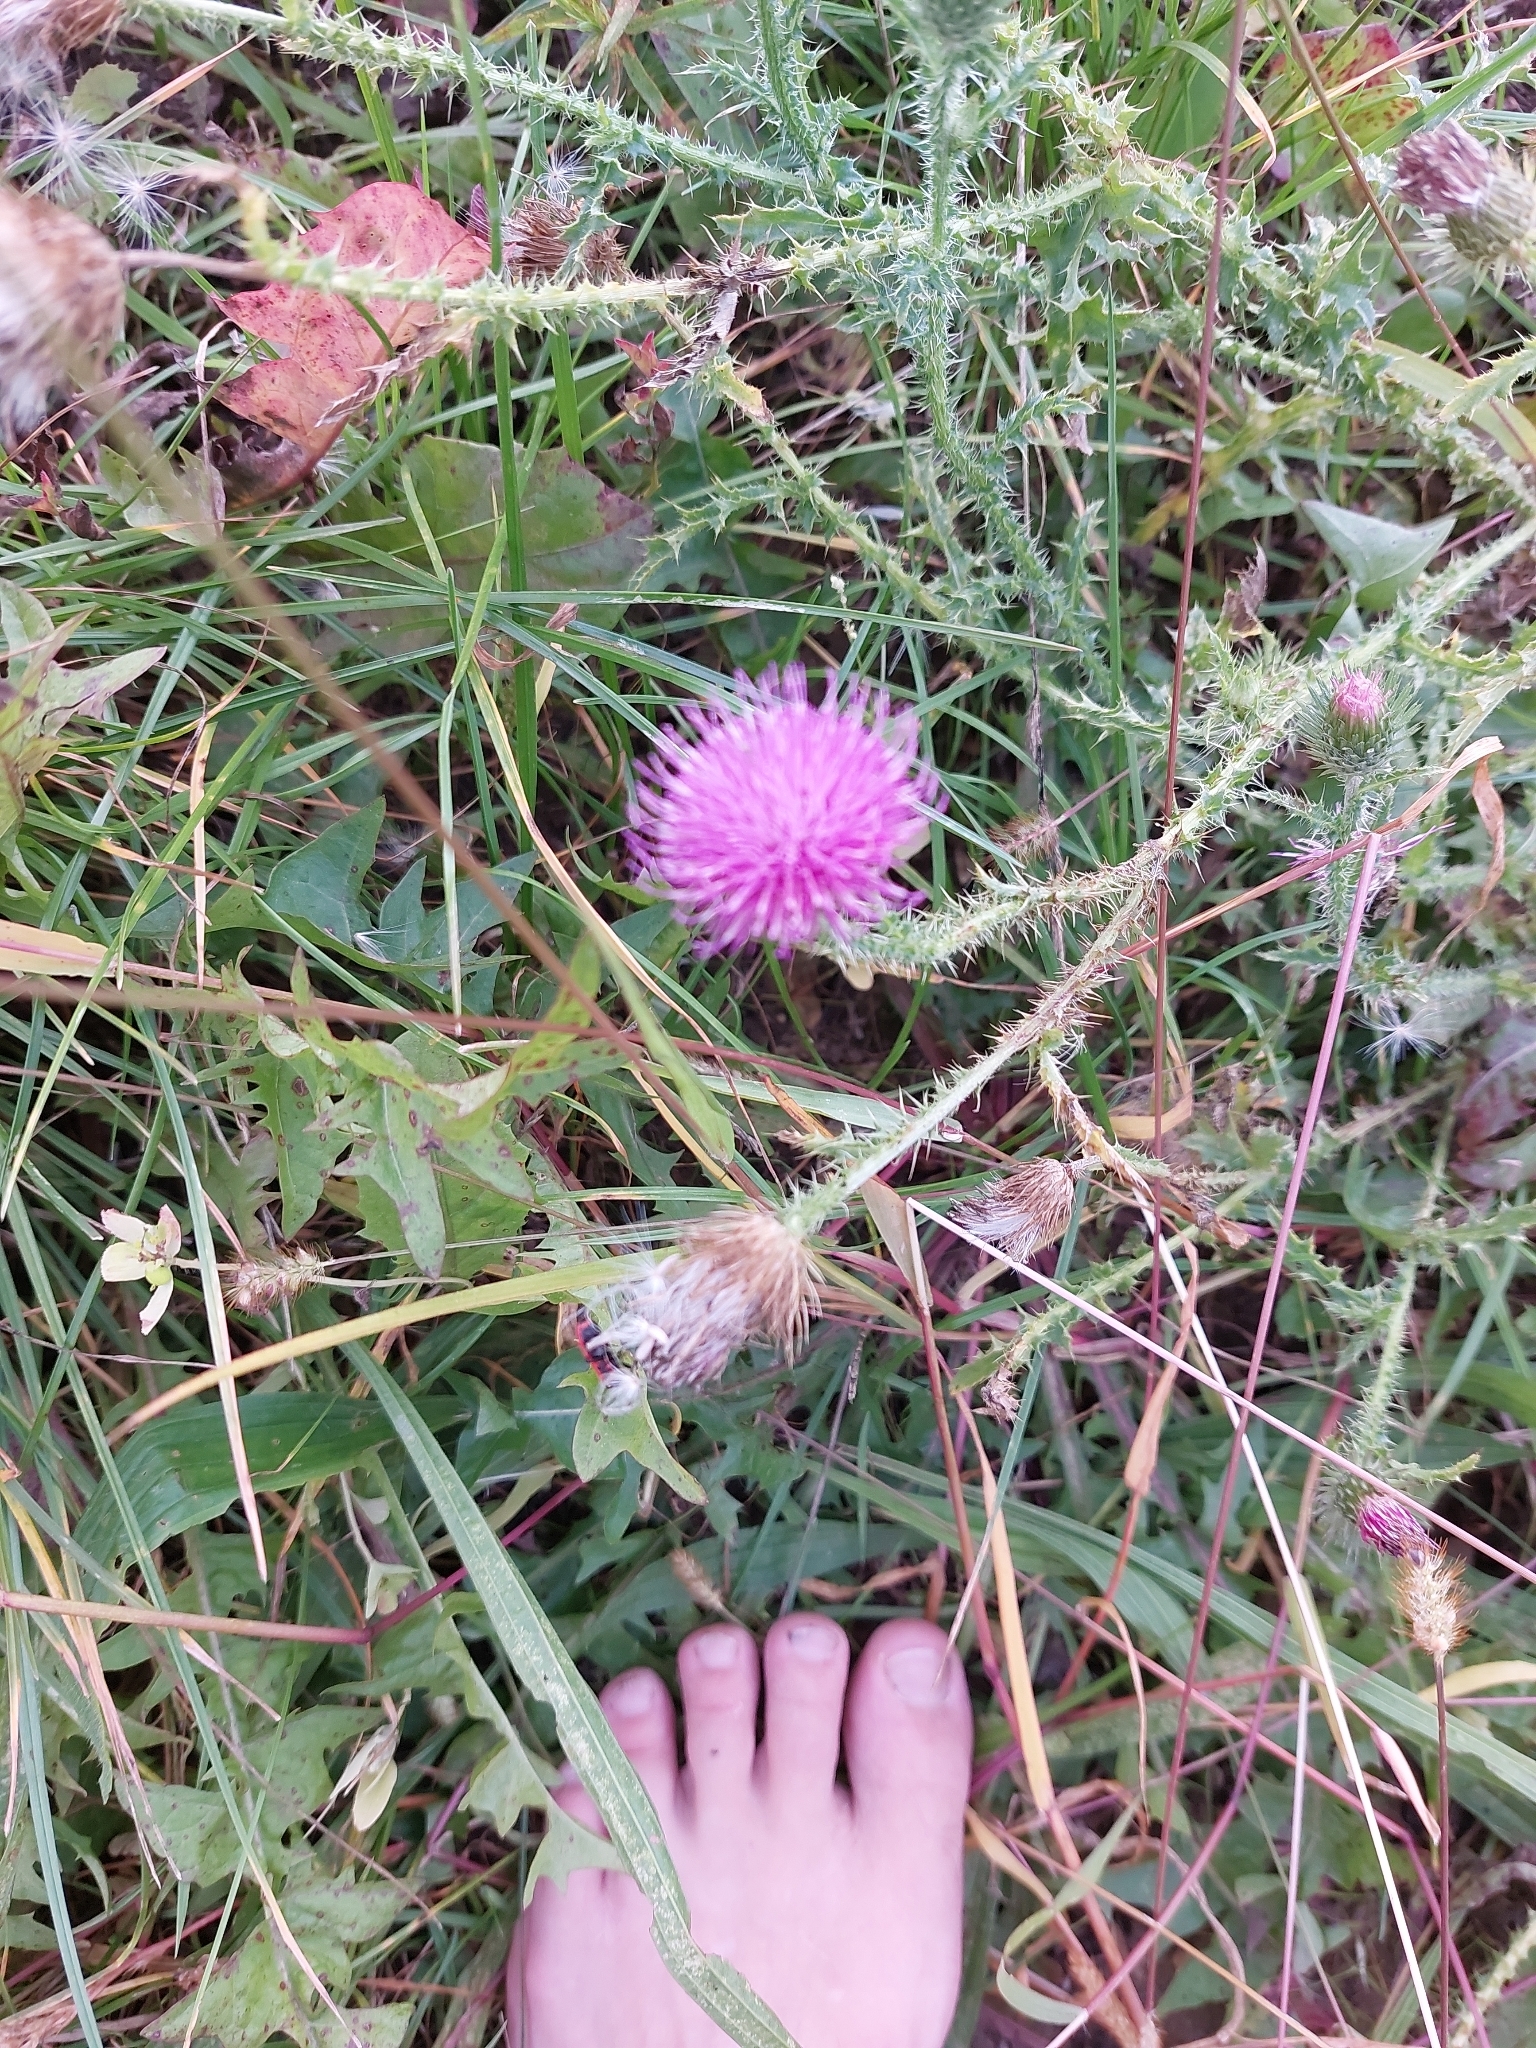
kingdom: Plantae
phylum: Tracheophyta
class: Magnoliopsida
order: Asterales
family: Asteraceae
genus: Carduus
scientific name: Carduus acanthoides
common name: Plumeless thistle
